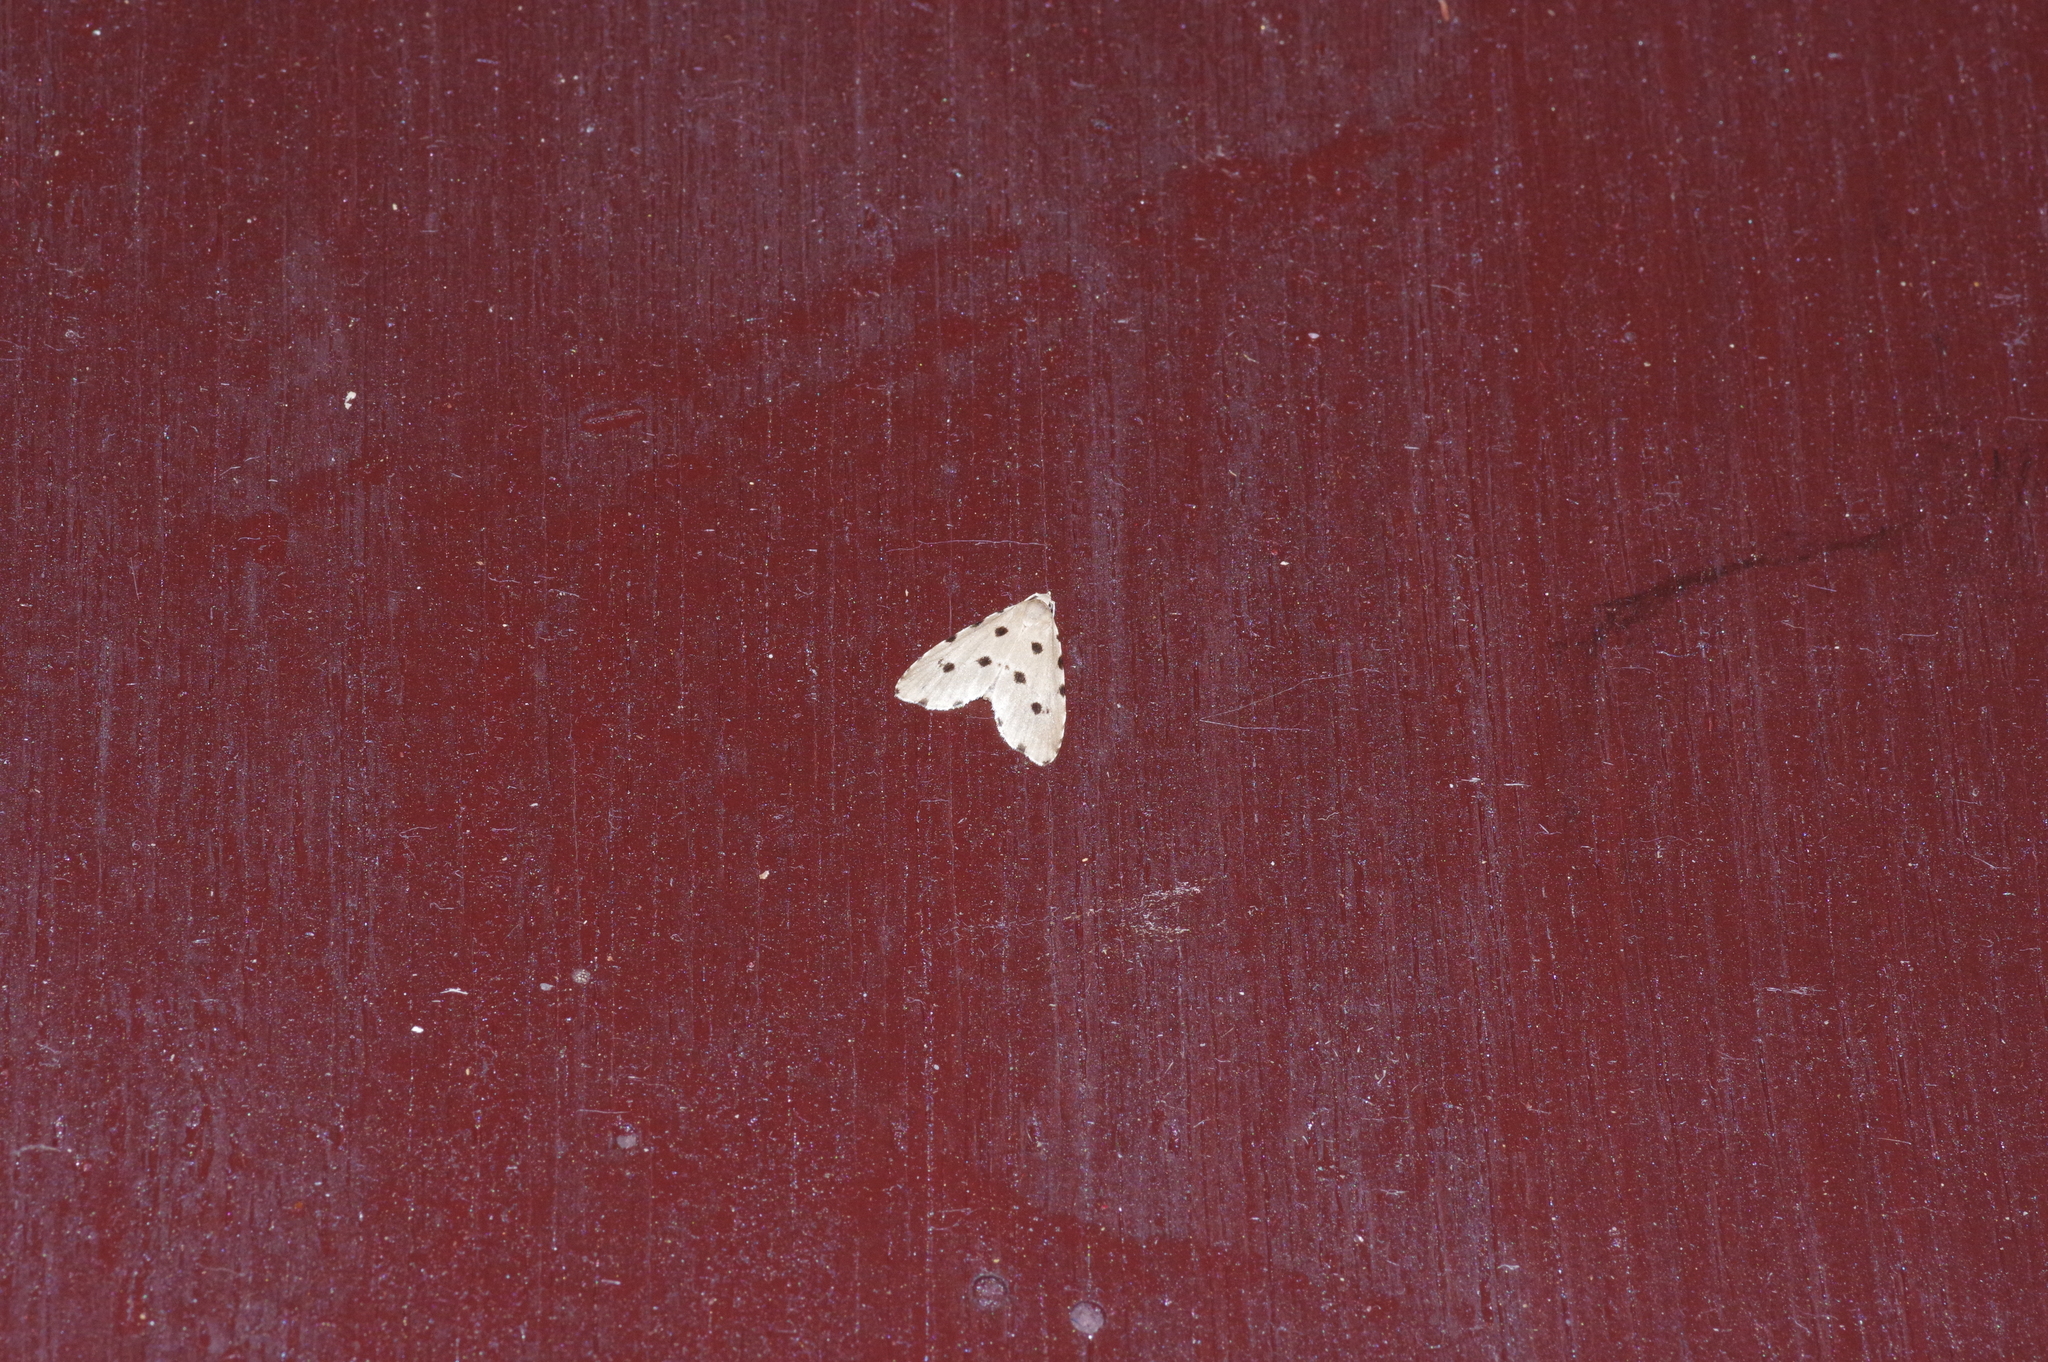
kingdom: Animalia
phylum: Arthropoda
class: Insecta
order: Lepidoptera
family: Noctuidae
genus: Metaemene
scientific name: Metaemene atrigutta
